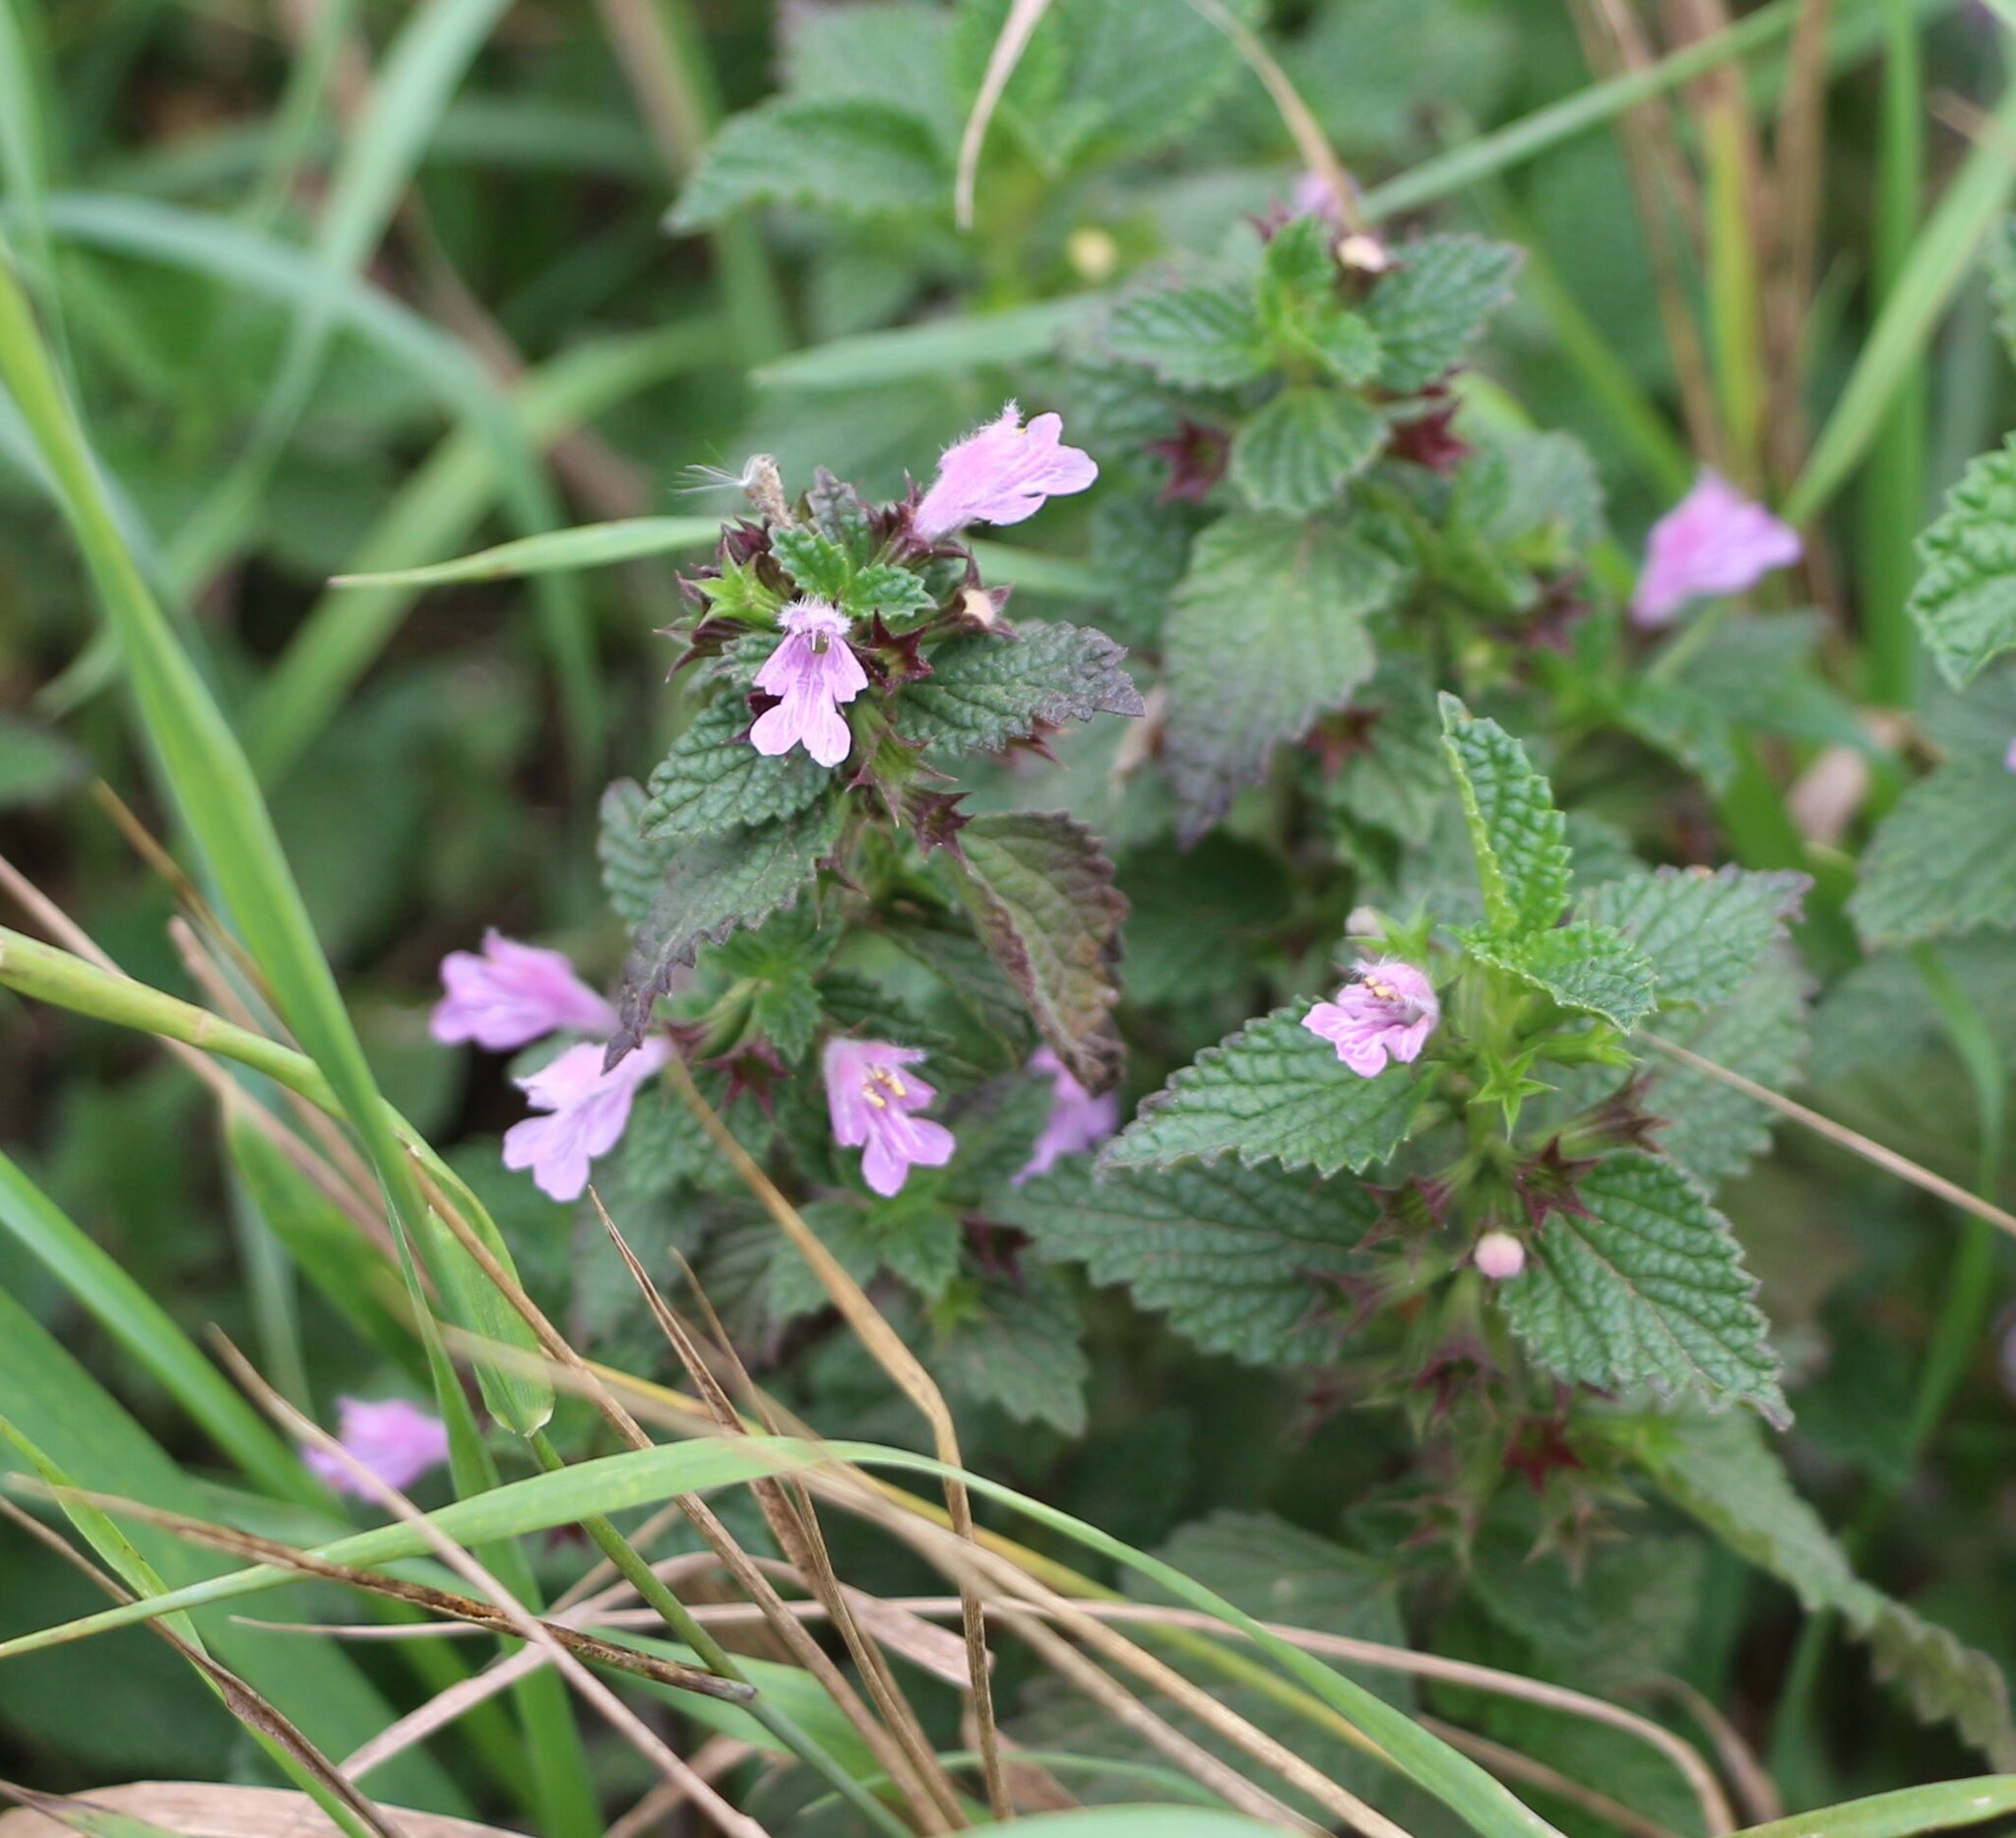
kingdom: Plantae
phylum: Tracheophyta
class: Magnoliopsida
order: Lamiales
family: Lamiaceae
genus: Ballota
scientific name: Ballota nigra
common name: Black horehound
